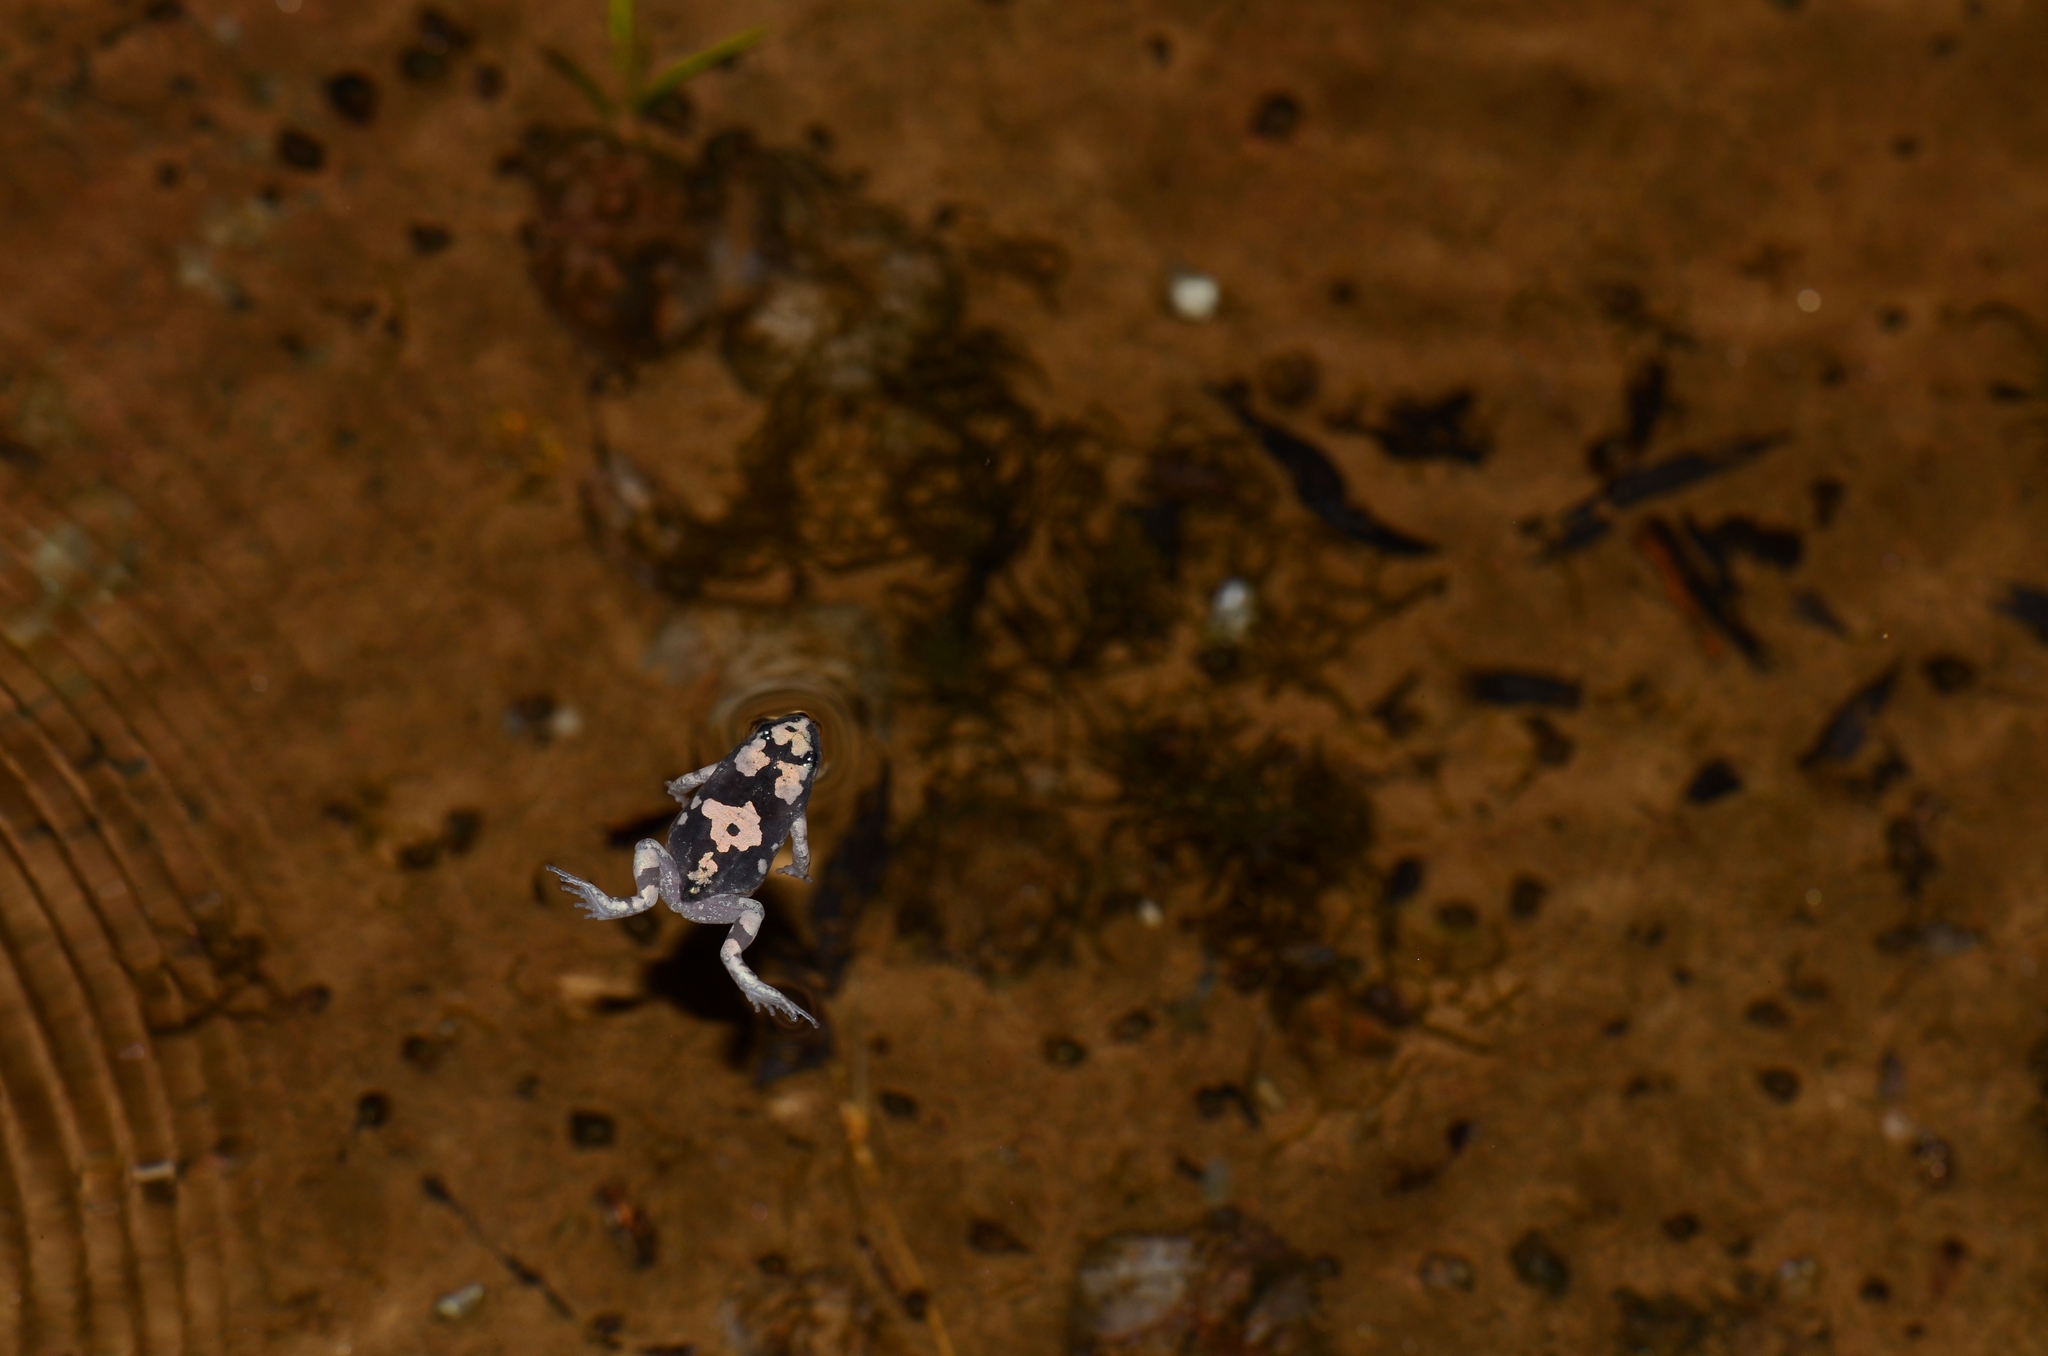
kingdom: Animalia
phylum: Chordata
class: Amphibia
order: Anura
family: Microhylidae
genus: Phrynomantis
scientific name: Phrynomantis annectens
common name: Marbled rubber frog
